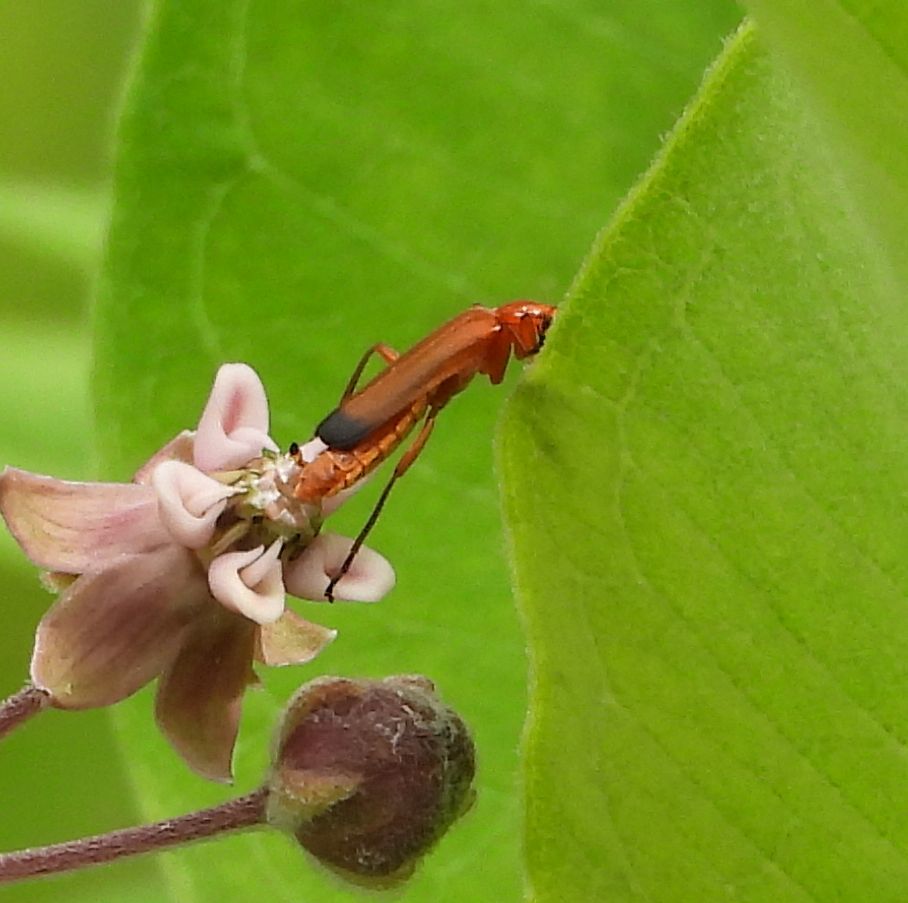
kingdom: Animalia
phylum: Arthropoda
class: Insecta
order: Coleoptera
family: Cantharidae
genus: Rhagonycha
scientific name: Rhagonycha fulva
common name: Common red soldier beetle
